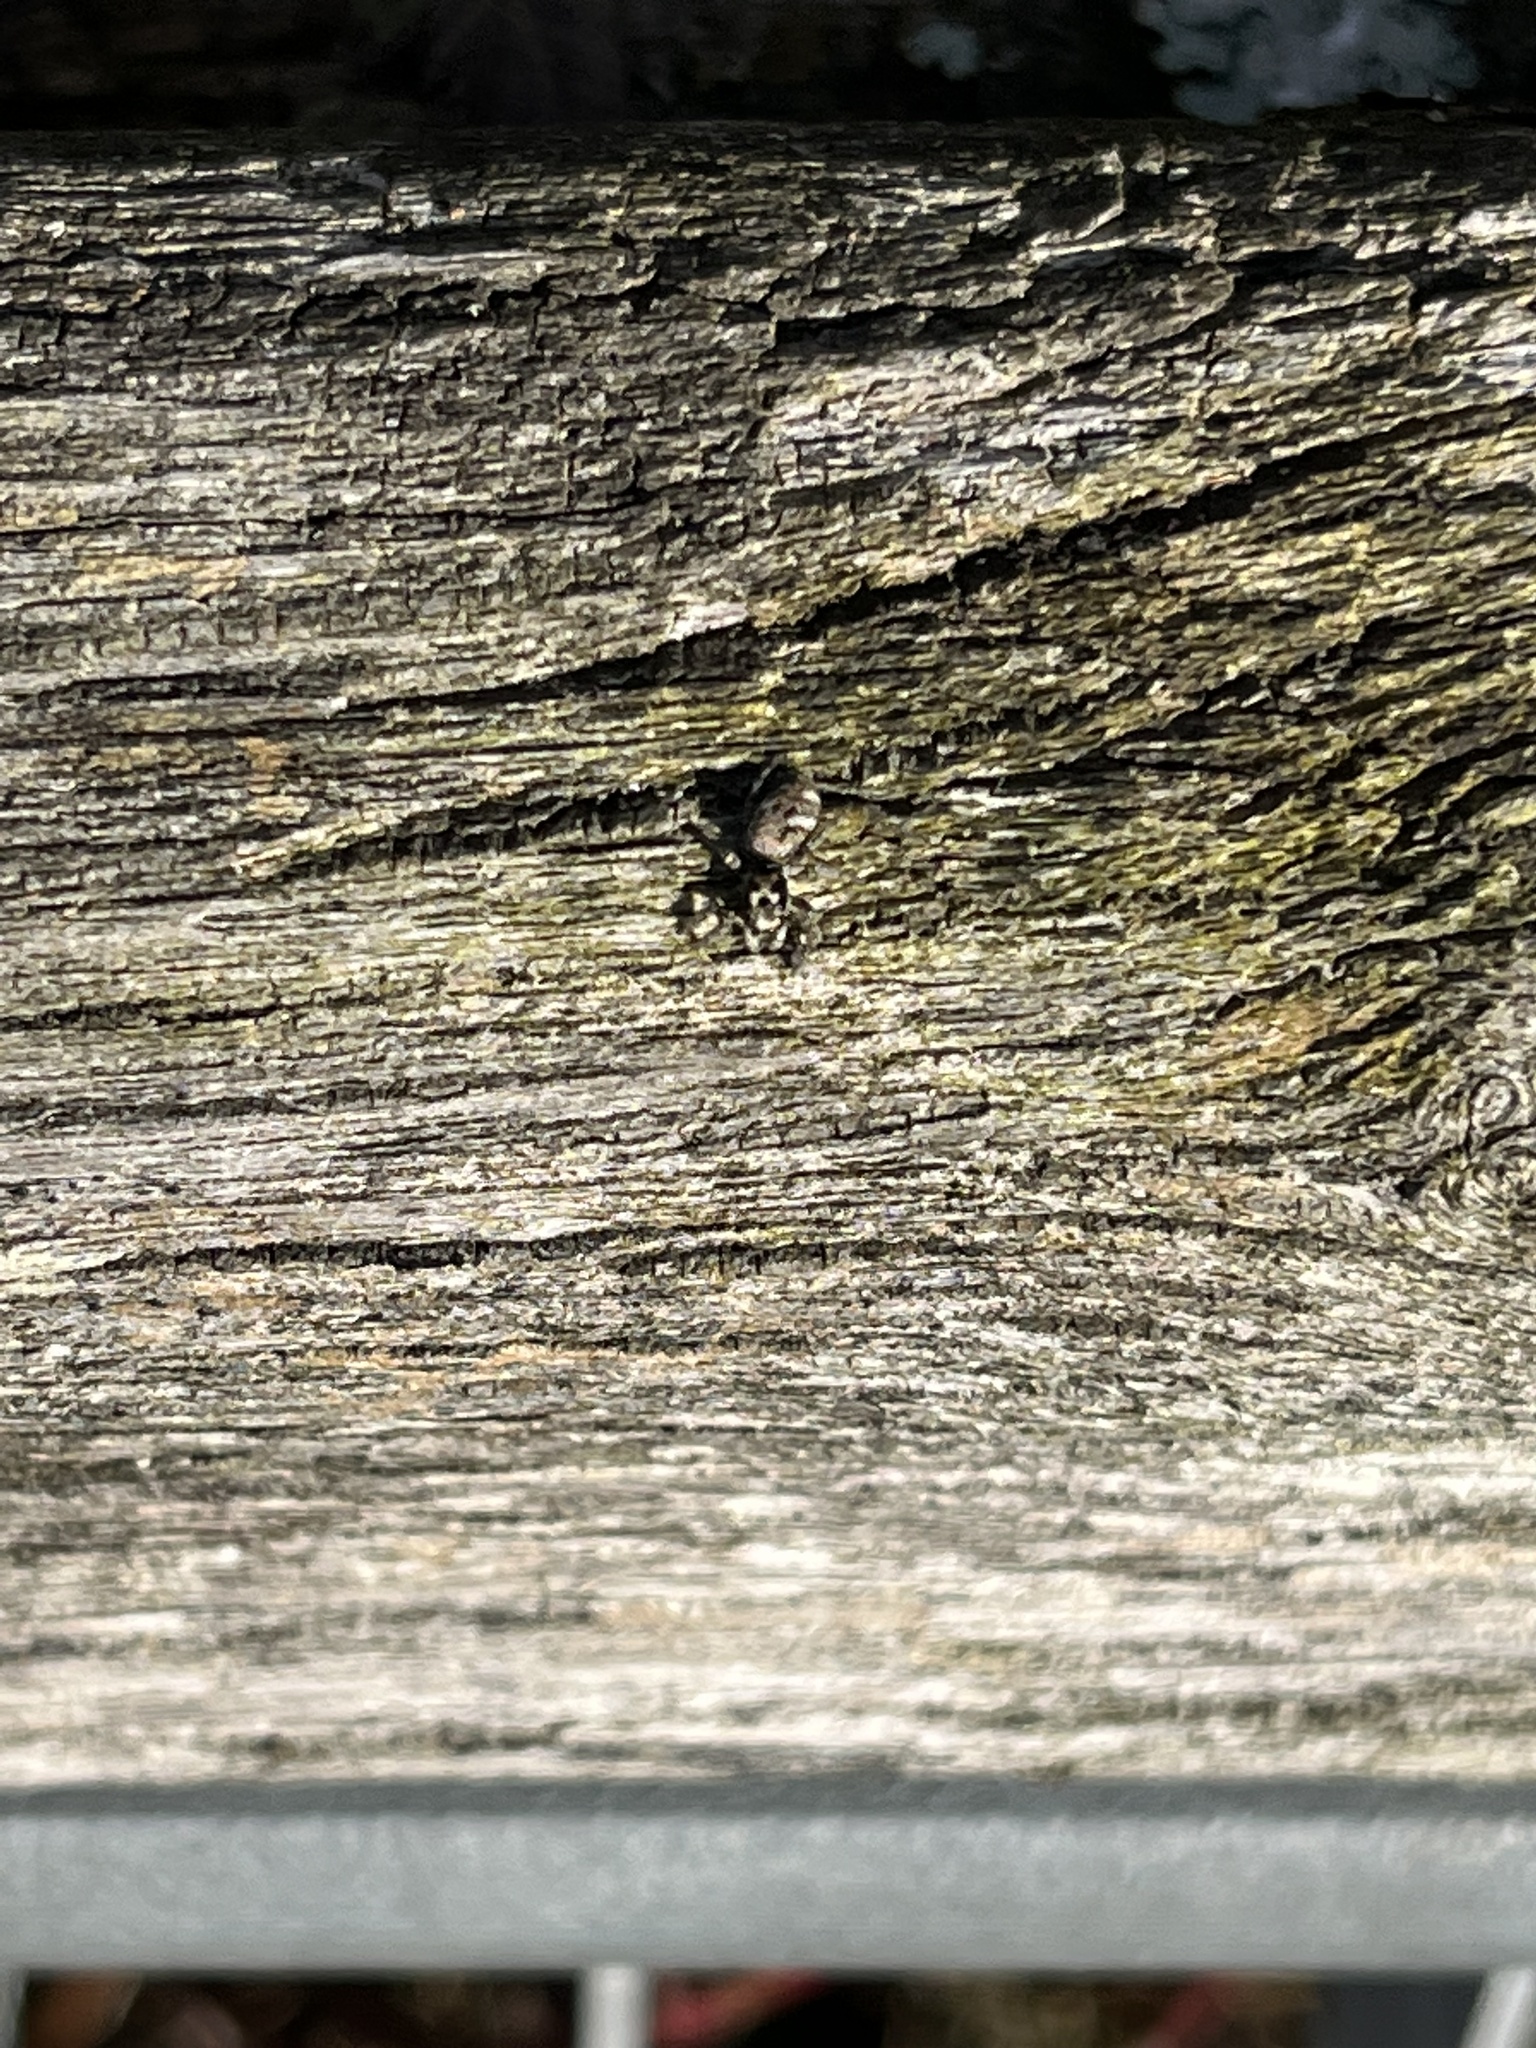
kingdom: Animalia
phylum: Arthropoda
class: Arachnida
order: Araneae
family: Salticidae
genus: Salticus
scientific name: Salticus scenicus
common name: Zebra jumper
